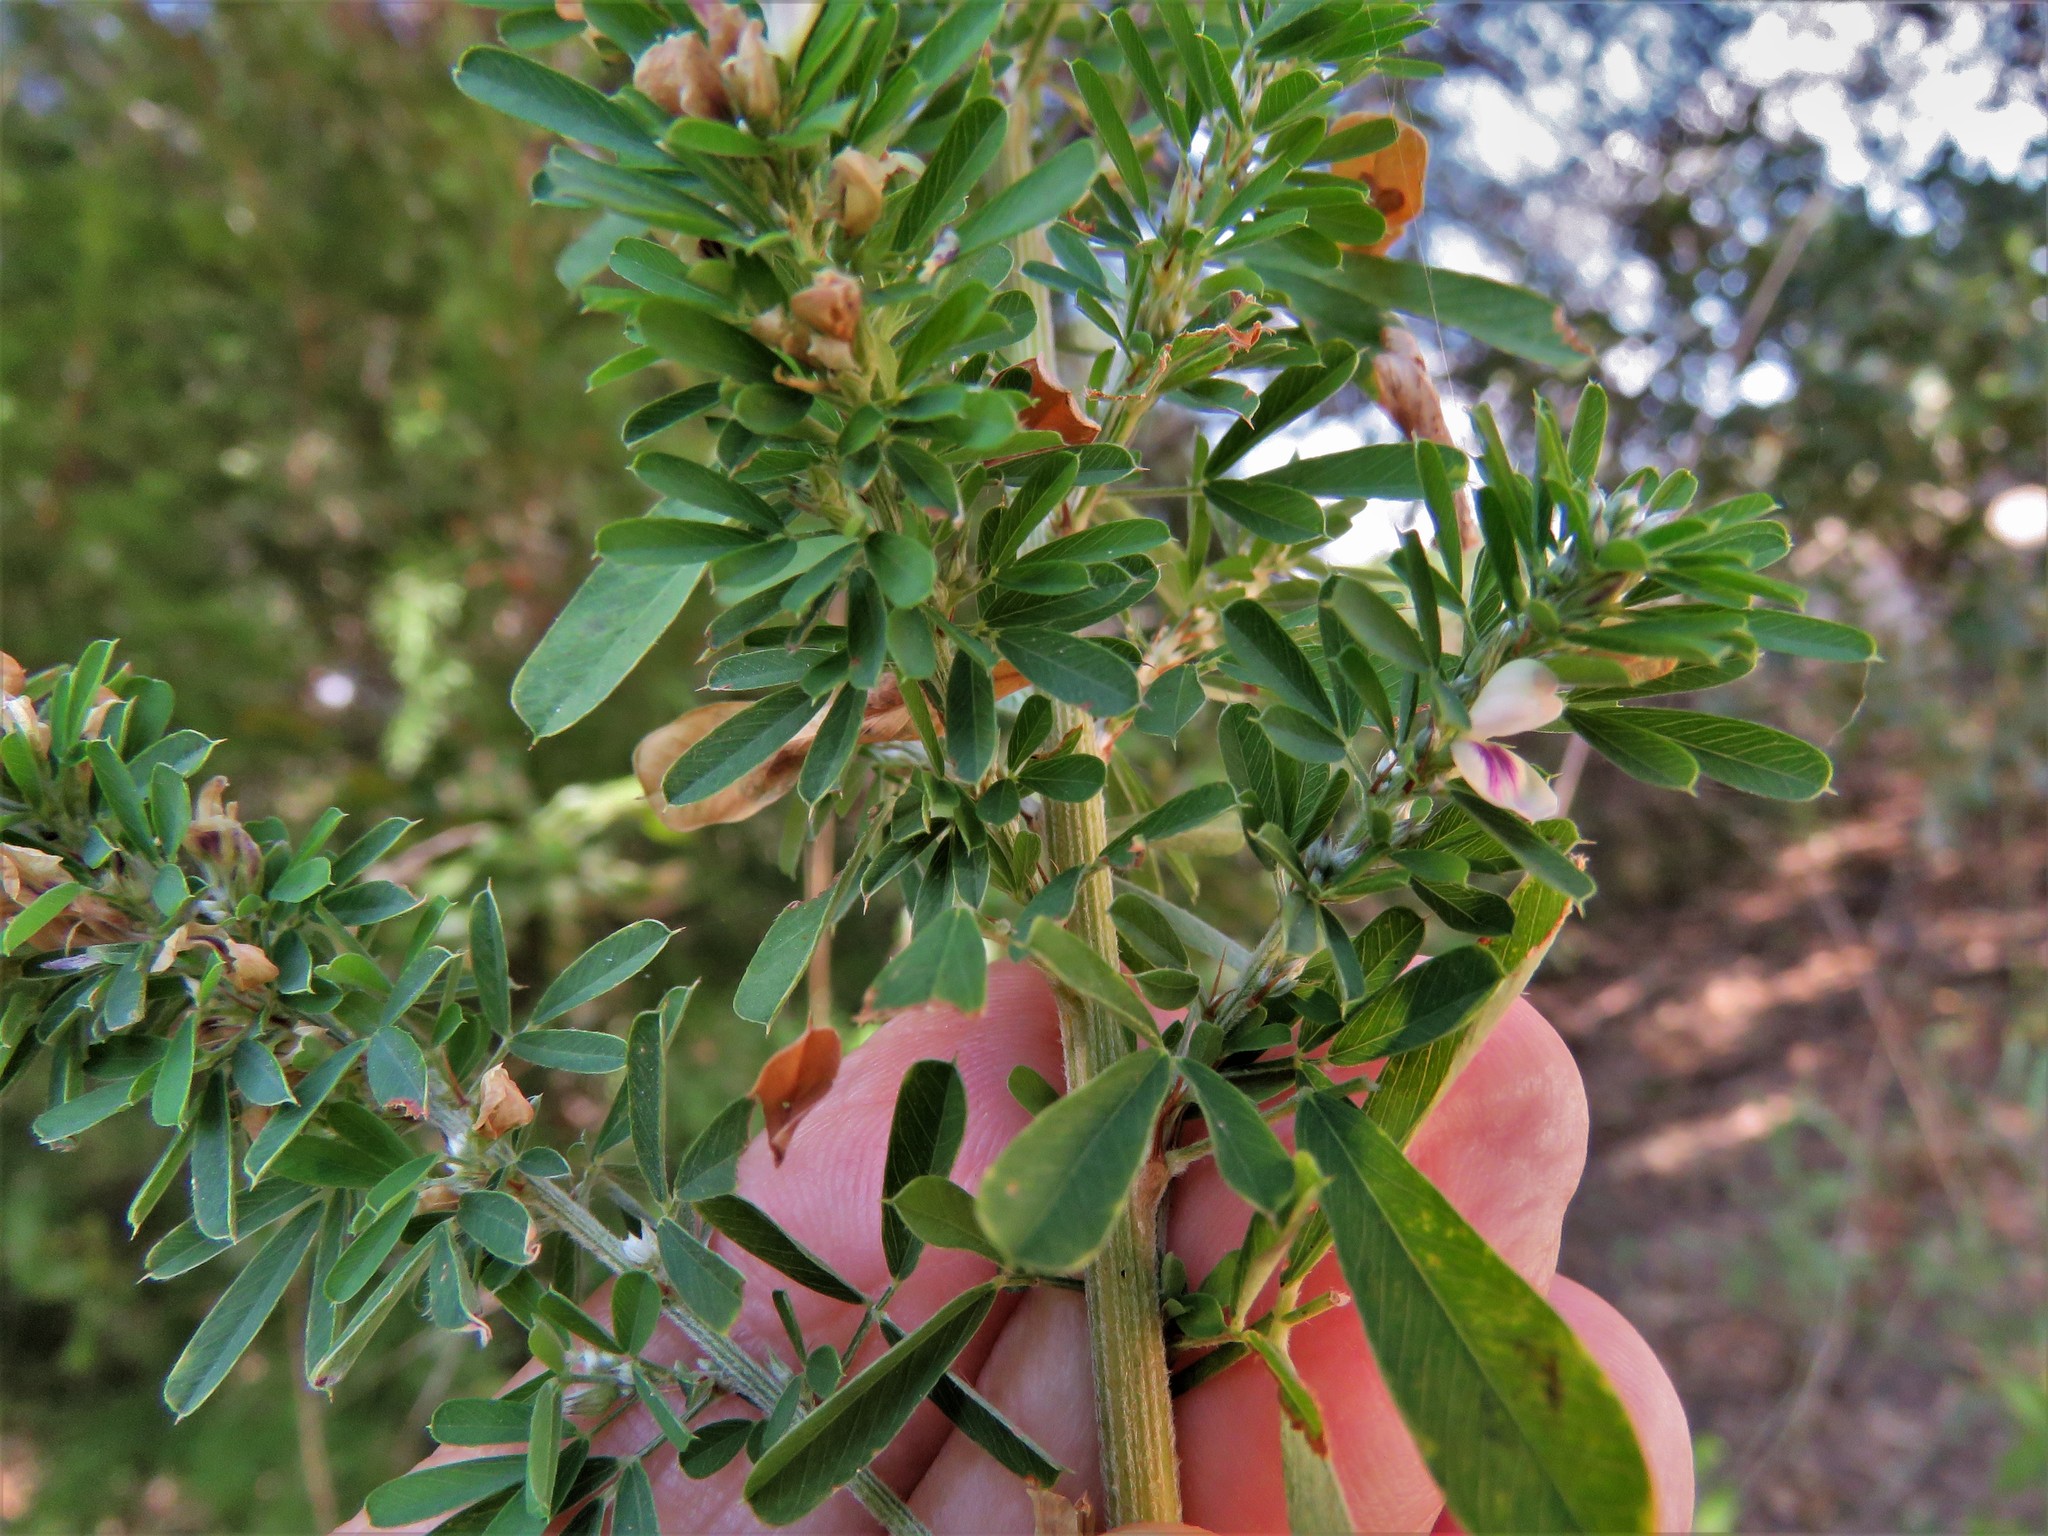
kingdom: Plantae
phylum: Tracheophyta
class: Magnoliopsida
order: Fabales
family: Fabaceae
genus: Lespedeza
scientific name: Lespedeza cuneata
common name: Chinese bush-clover
